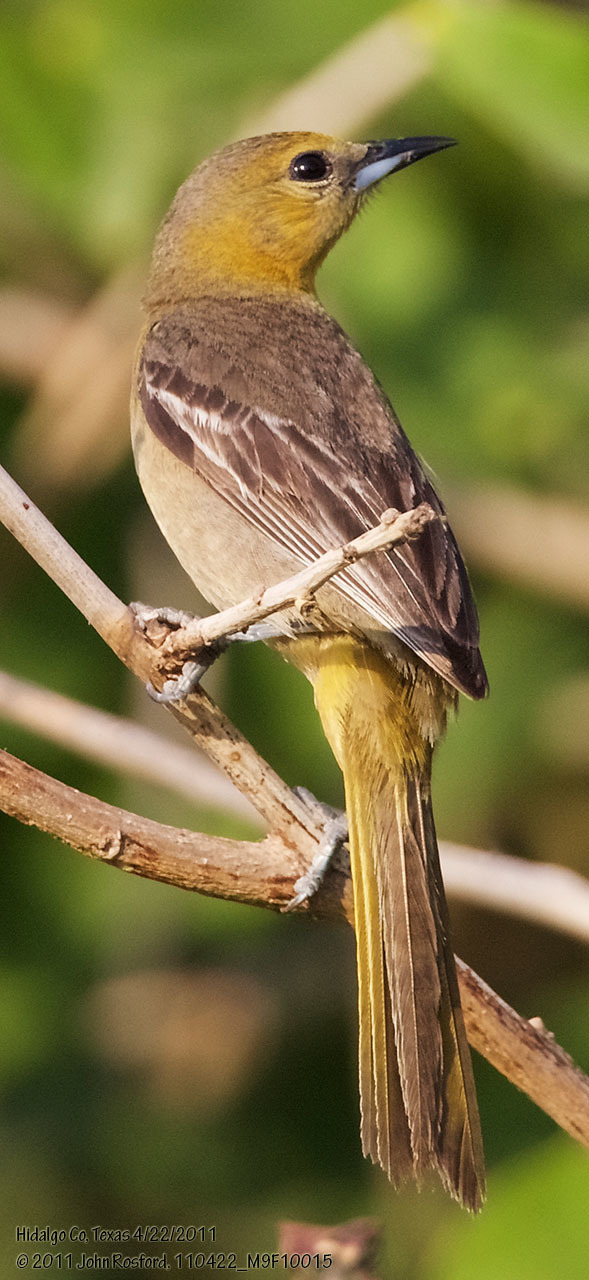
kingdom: Animalia
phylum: Chordata
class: Aves
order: Passeriformes
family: Icteridae
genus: Icterus
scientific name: Icterus cucullatus
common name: Hooded oriole
